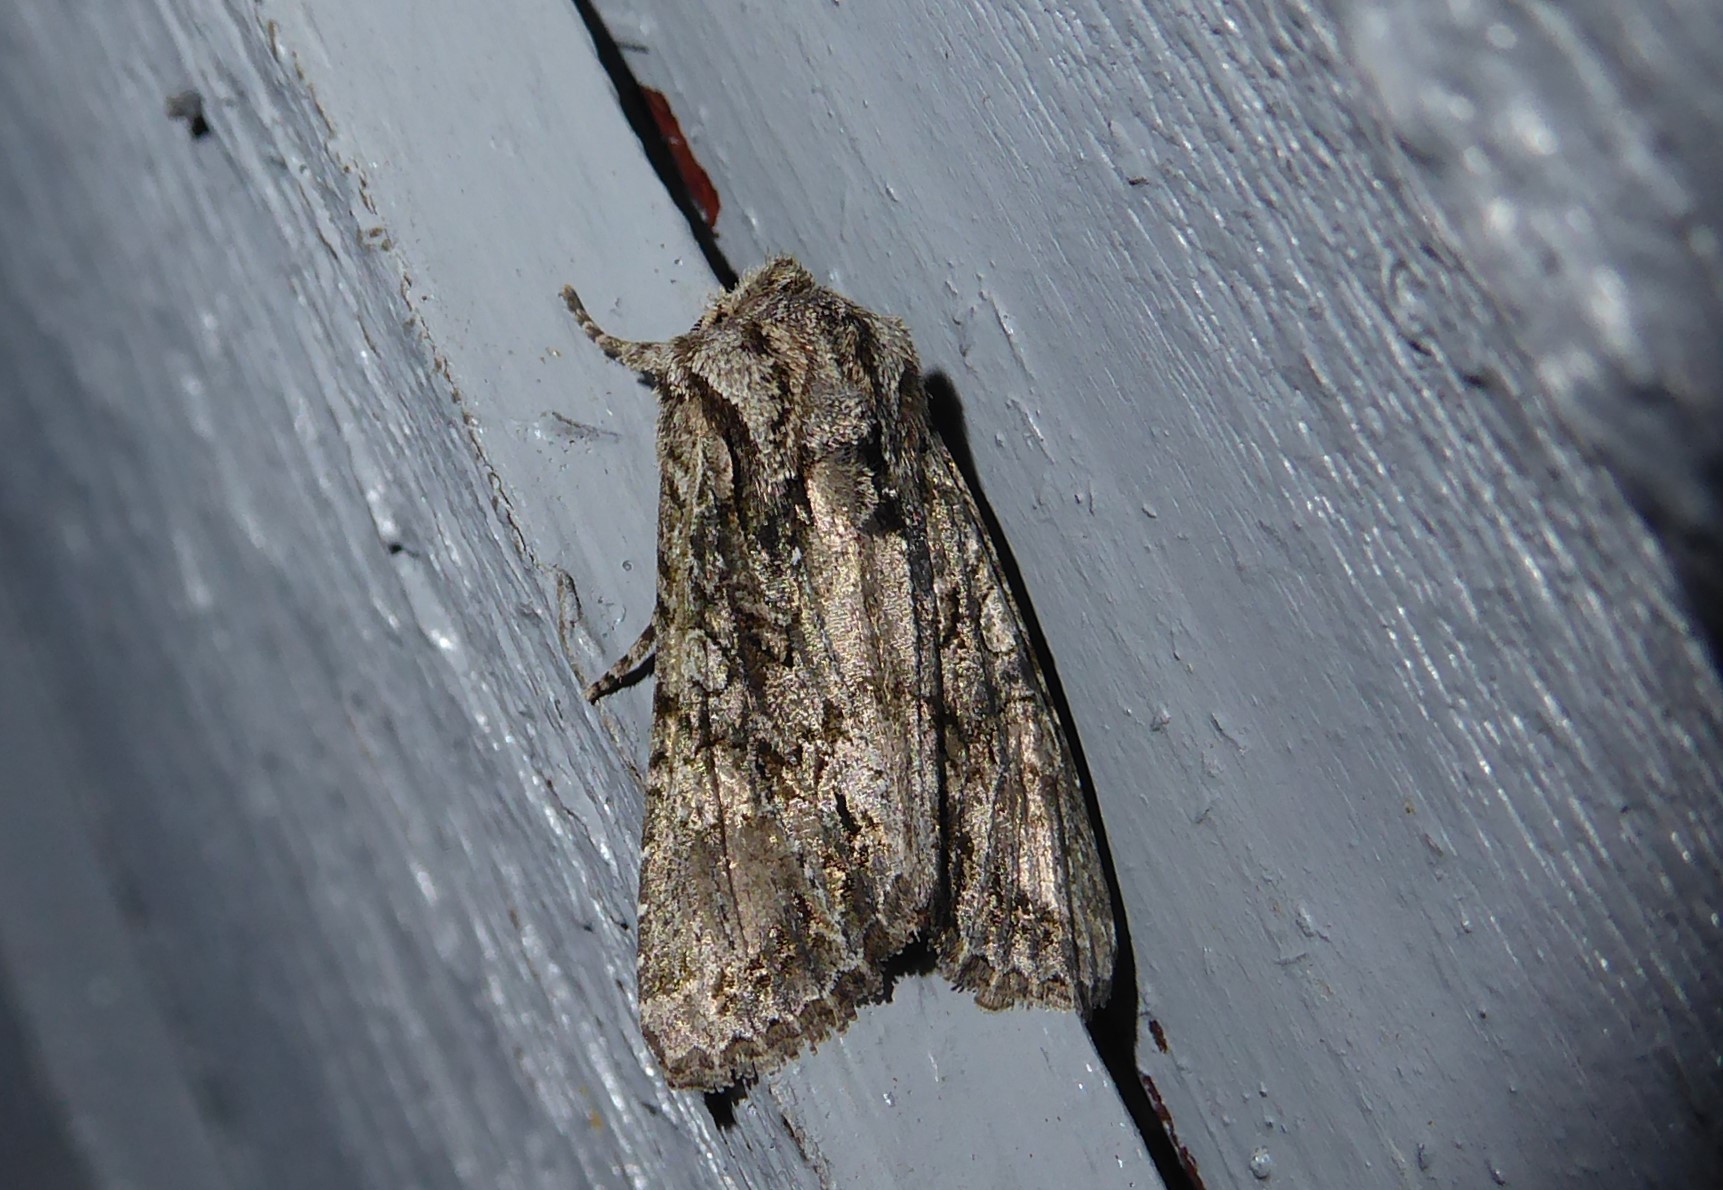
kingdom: Animalia
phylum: Arthropoda
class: Insecta
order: Lepidoptera
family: Noctuidae
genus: Ichneutica
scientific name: Ichneutica mutans
